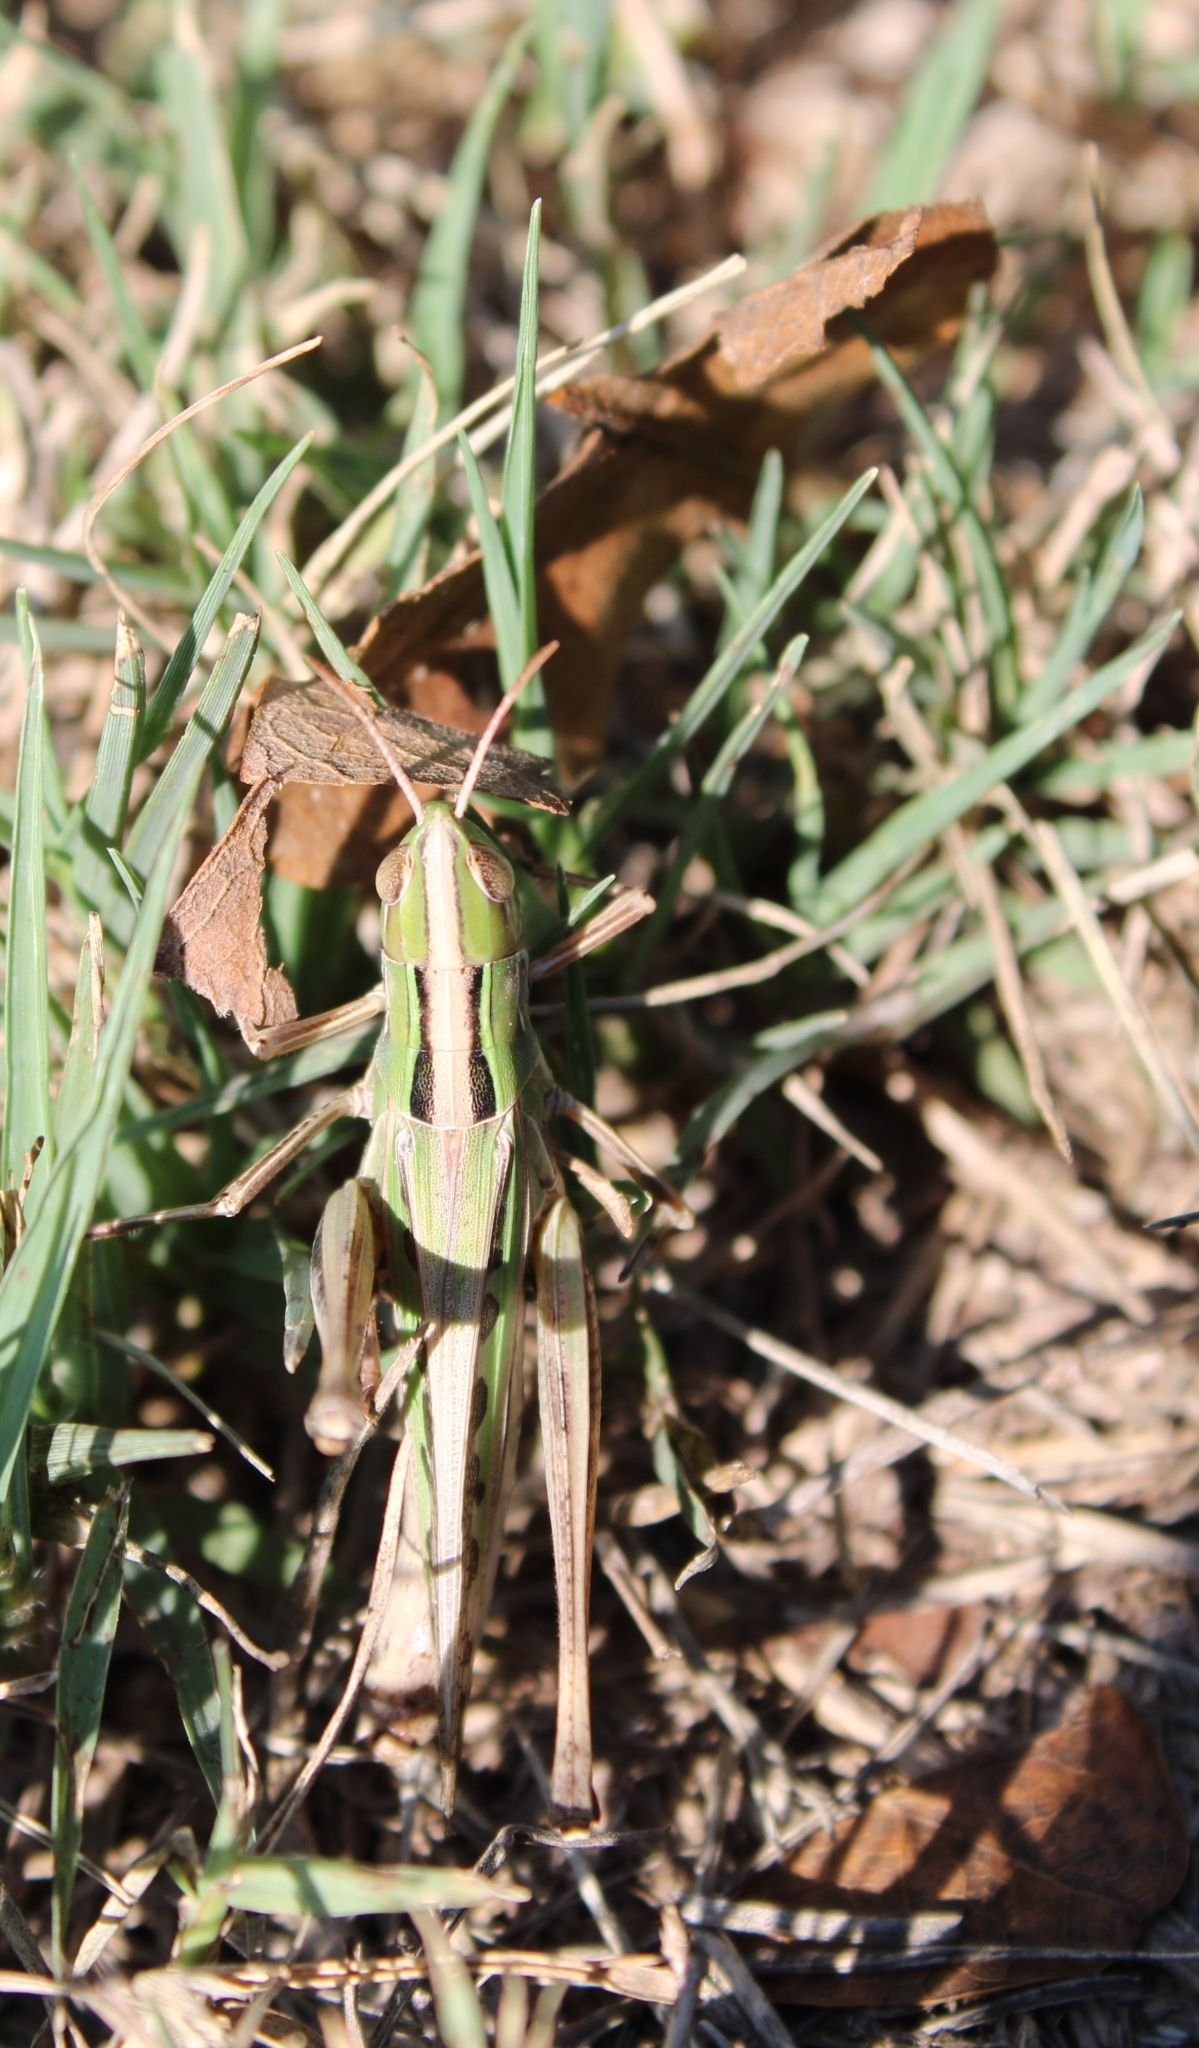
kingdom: Animalia
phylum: Arthropoda
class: Insecta
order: Orthoptera
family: Acrididae
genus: Syrbula
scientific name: Syrbula admirabilis
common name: Handsome grasshopper
